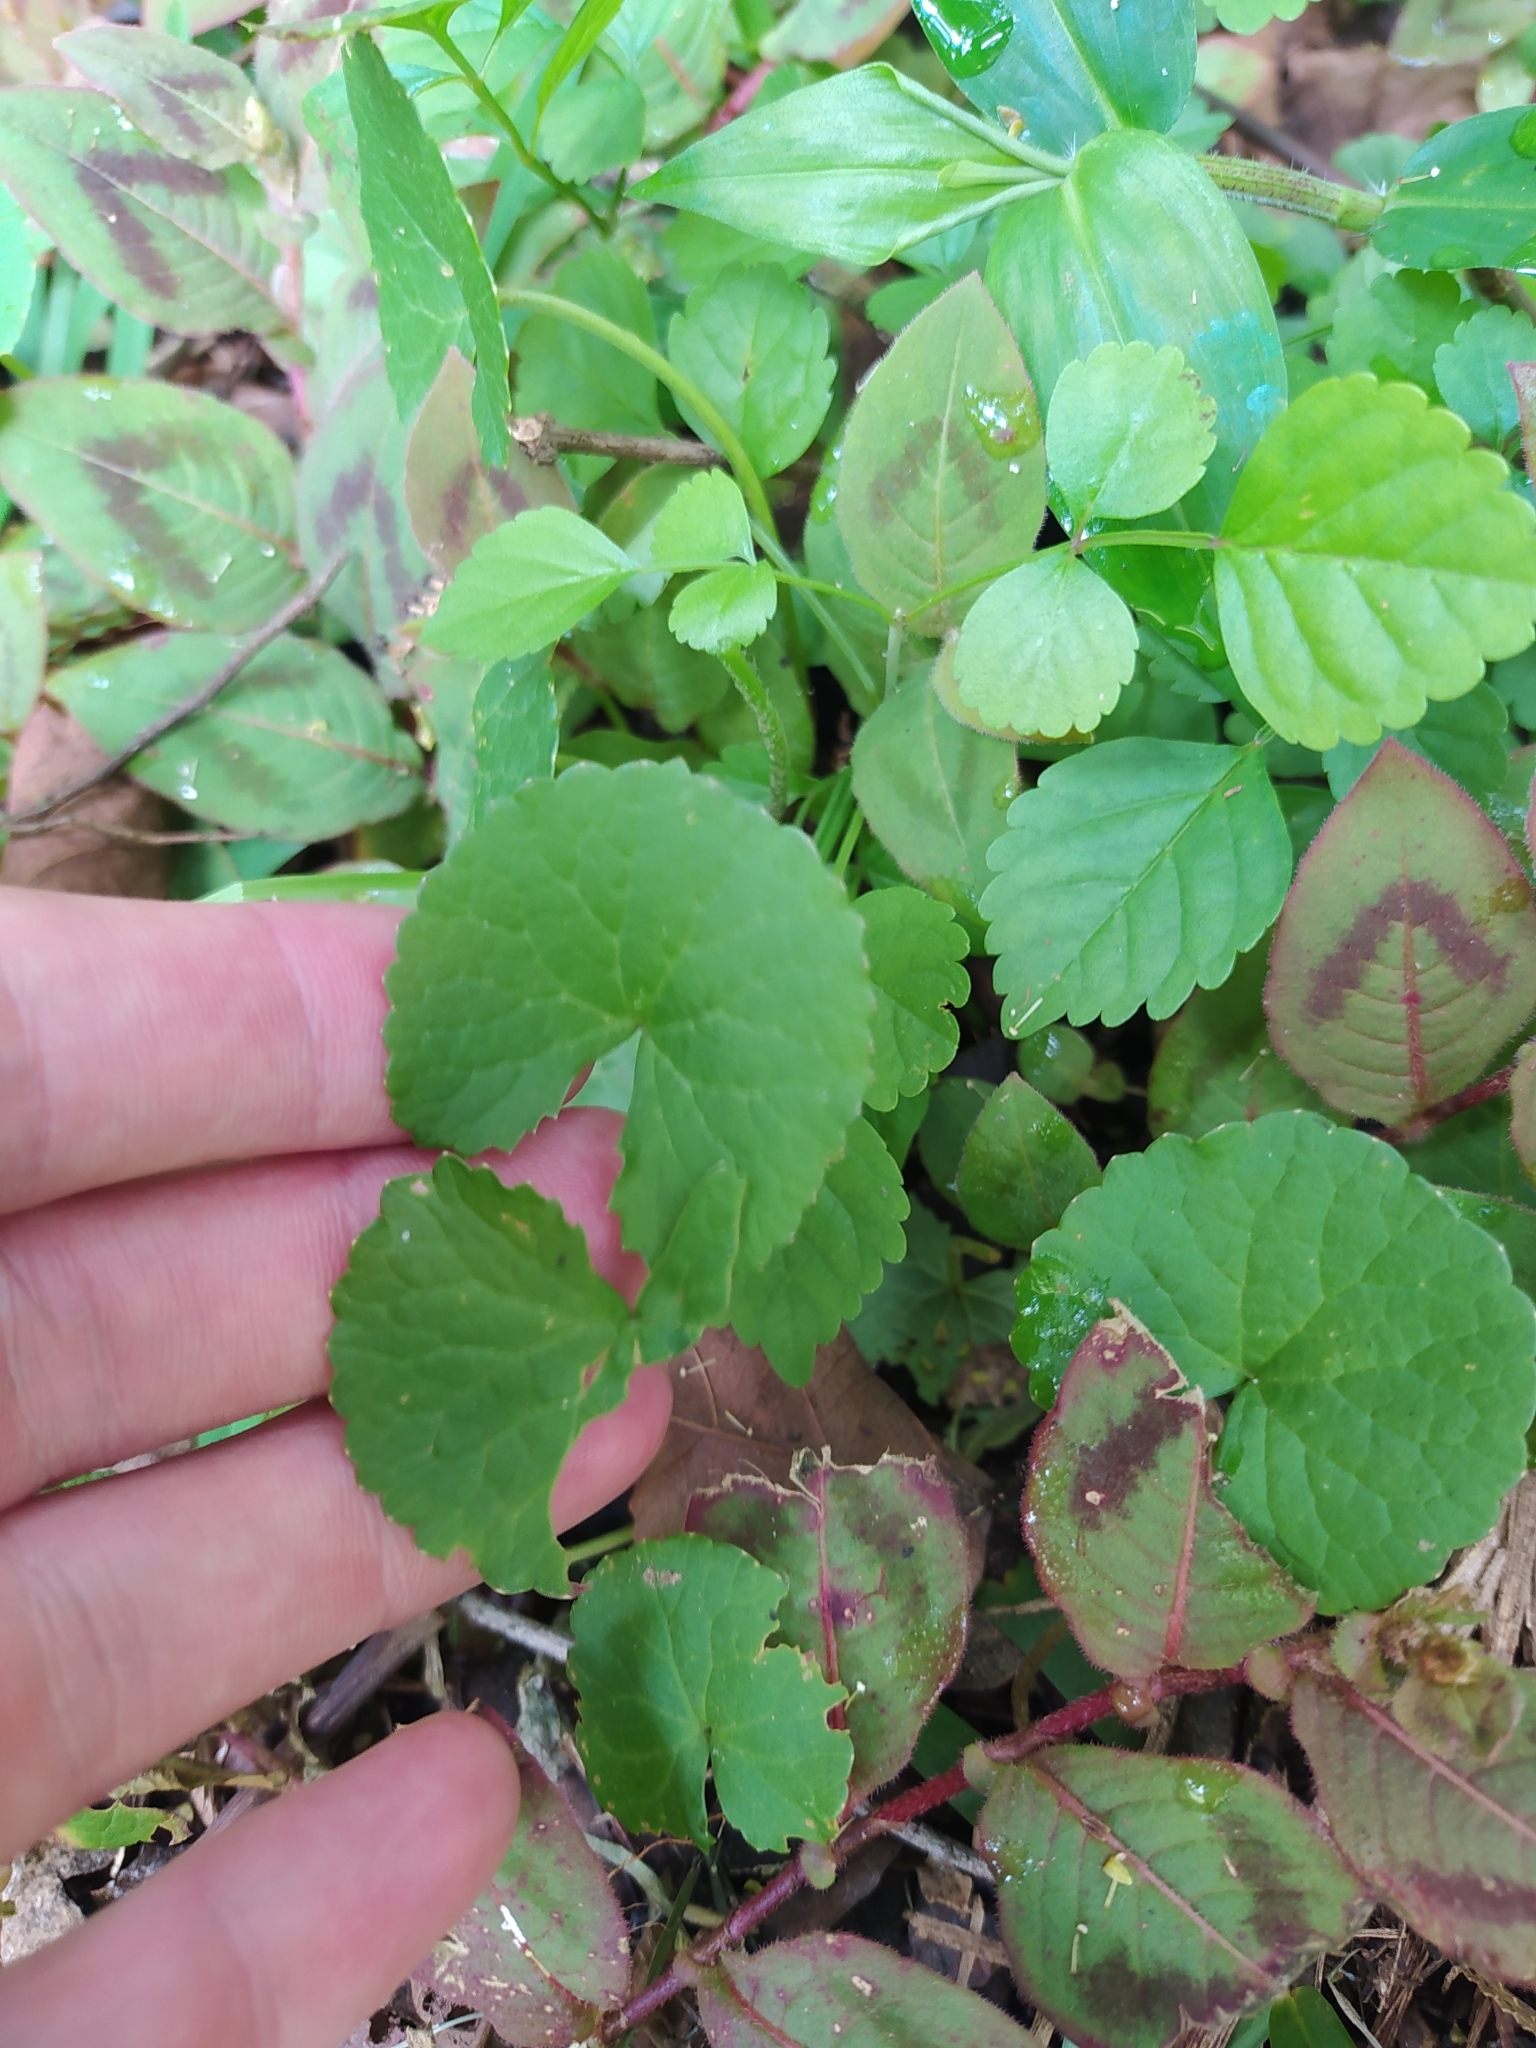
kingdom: Plantae
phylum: Tracheophyta
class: Magnoliopsida
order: Apiales
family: Apiaceae
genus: Centella
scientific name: Centella asiatica
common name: Spadeleaf
